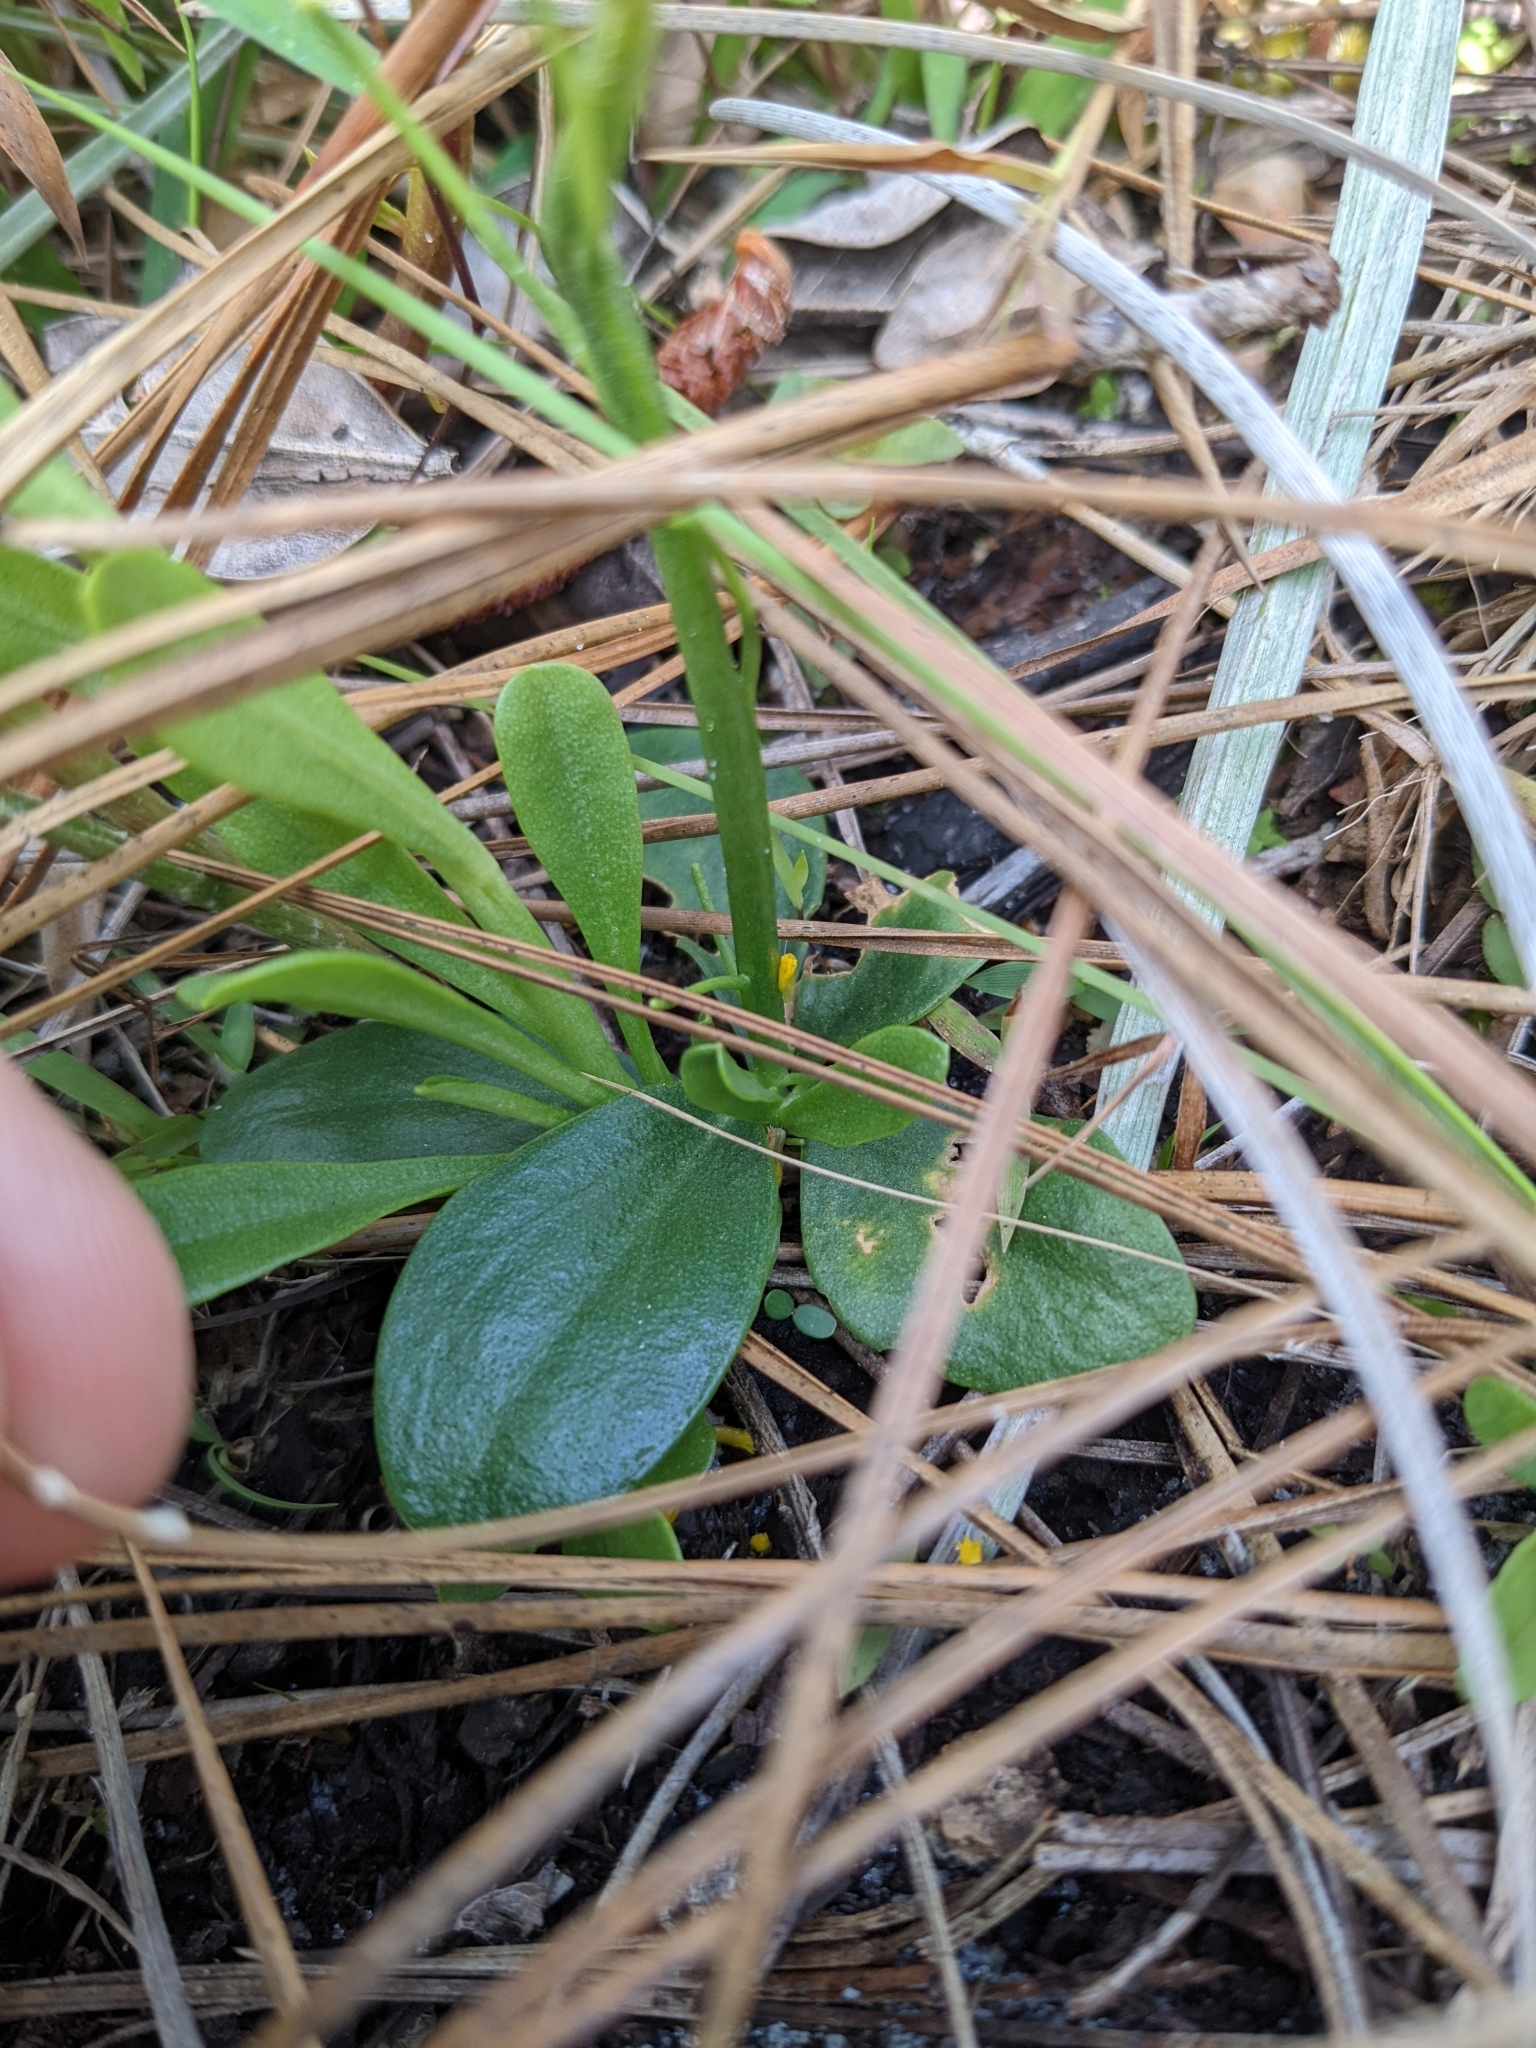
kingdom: Plantae
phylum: Tracheophyta
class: Magnoliopsida
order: Fabales
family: Polygalaceae
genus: Polygala
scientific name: Polygala rugelii
